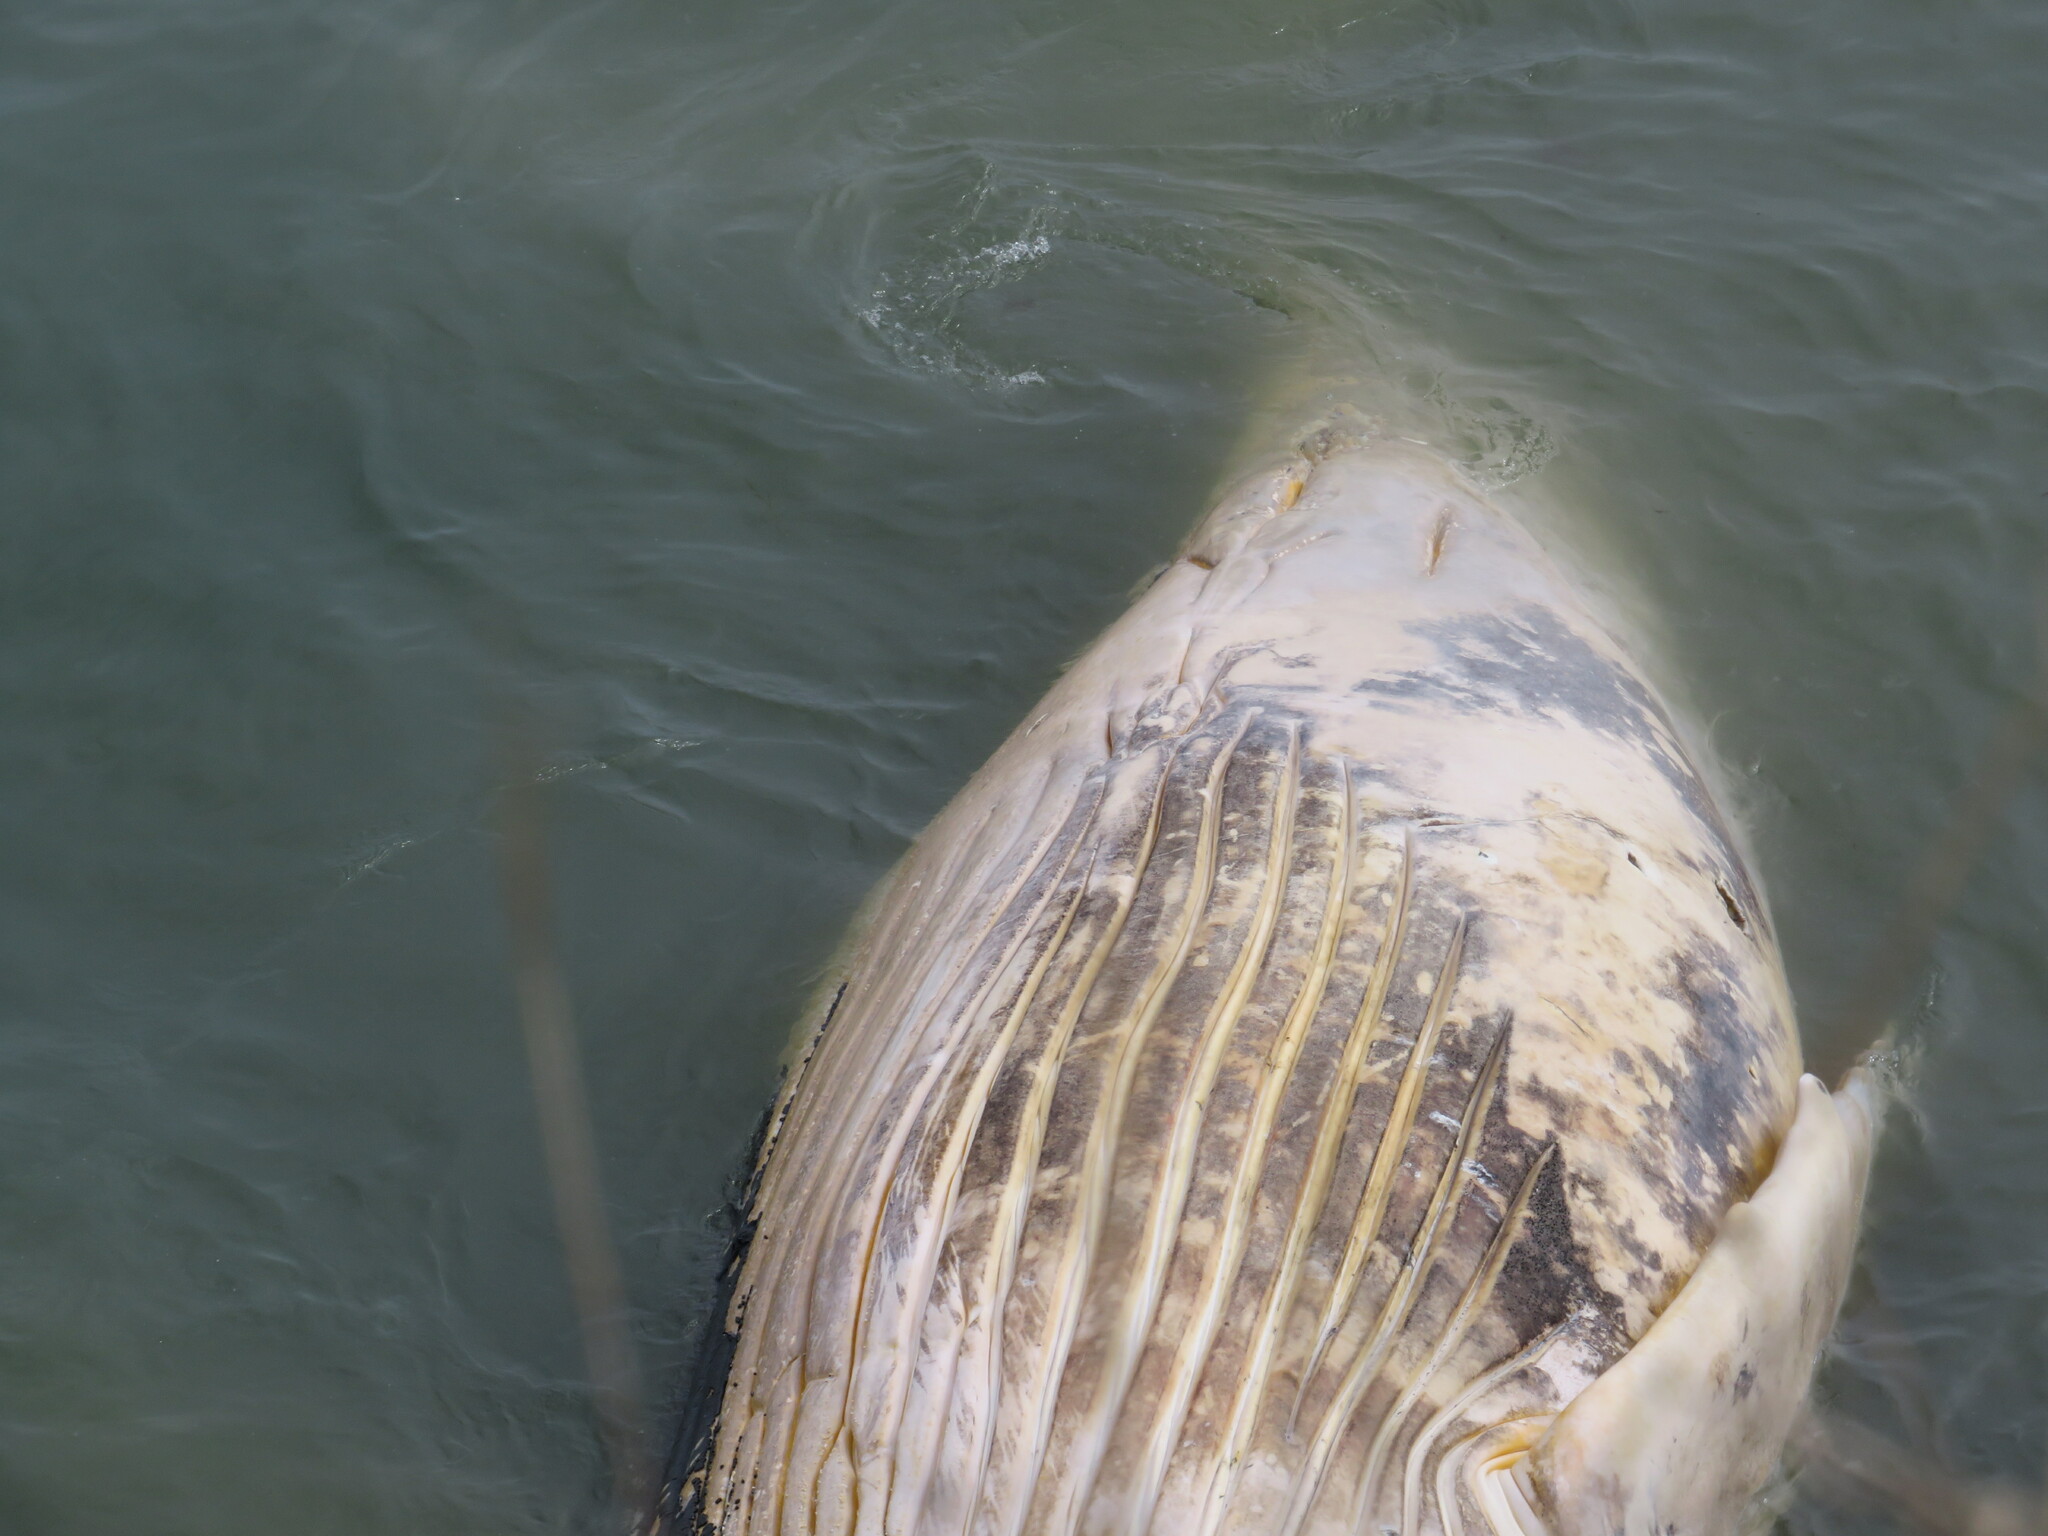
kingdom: Animalia
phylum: Chordata
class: Mammalia
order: Cetacea
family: Balaenopteridae
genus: Megaptera
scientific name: Megaptera novaeangliae
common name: Humpback whale
